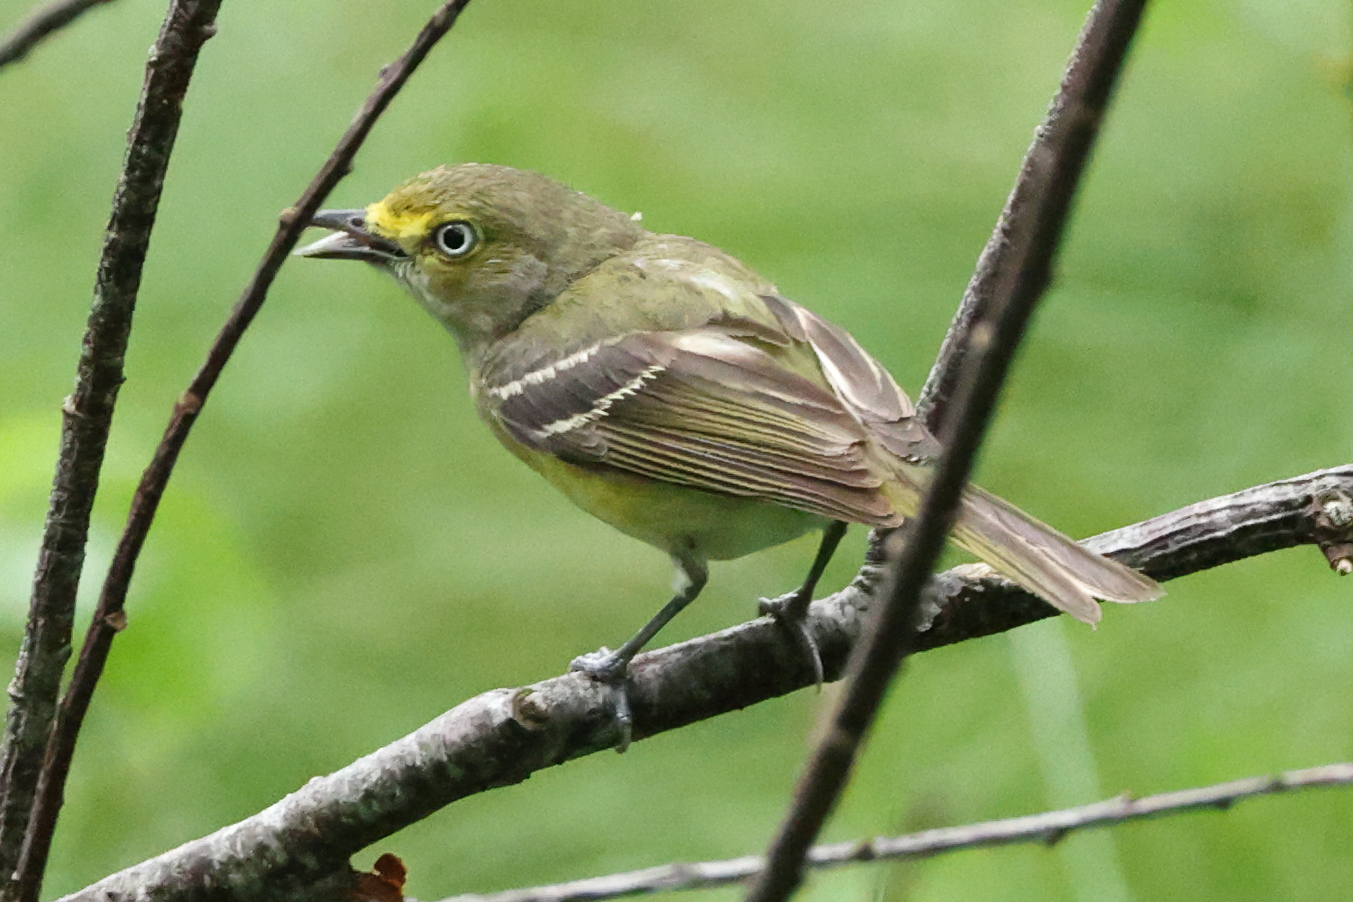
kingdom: Animalia
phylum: Chordata
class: Aves
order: Passeriformes
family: Vireonidae
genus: Vireo
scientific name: Vireo griseus
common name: White-eyed vireo
